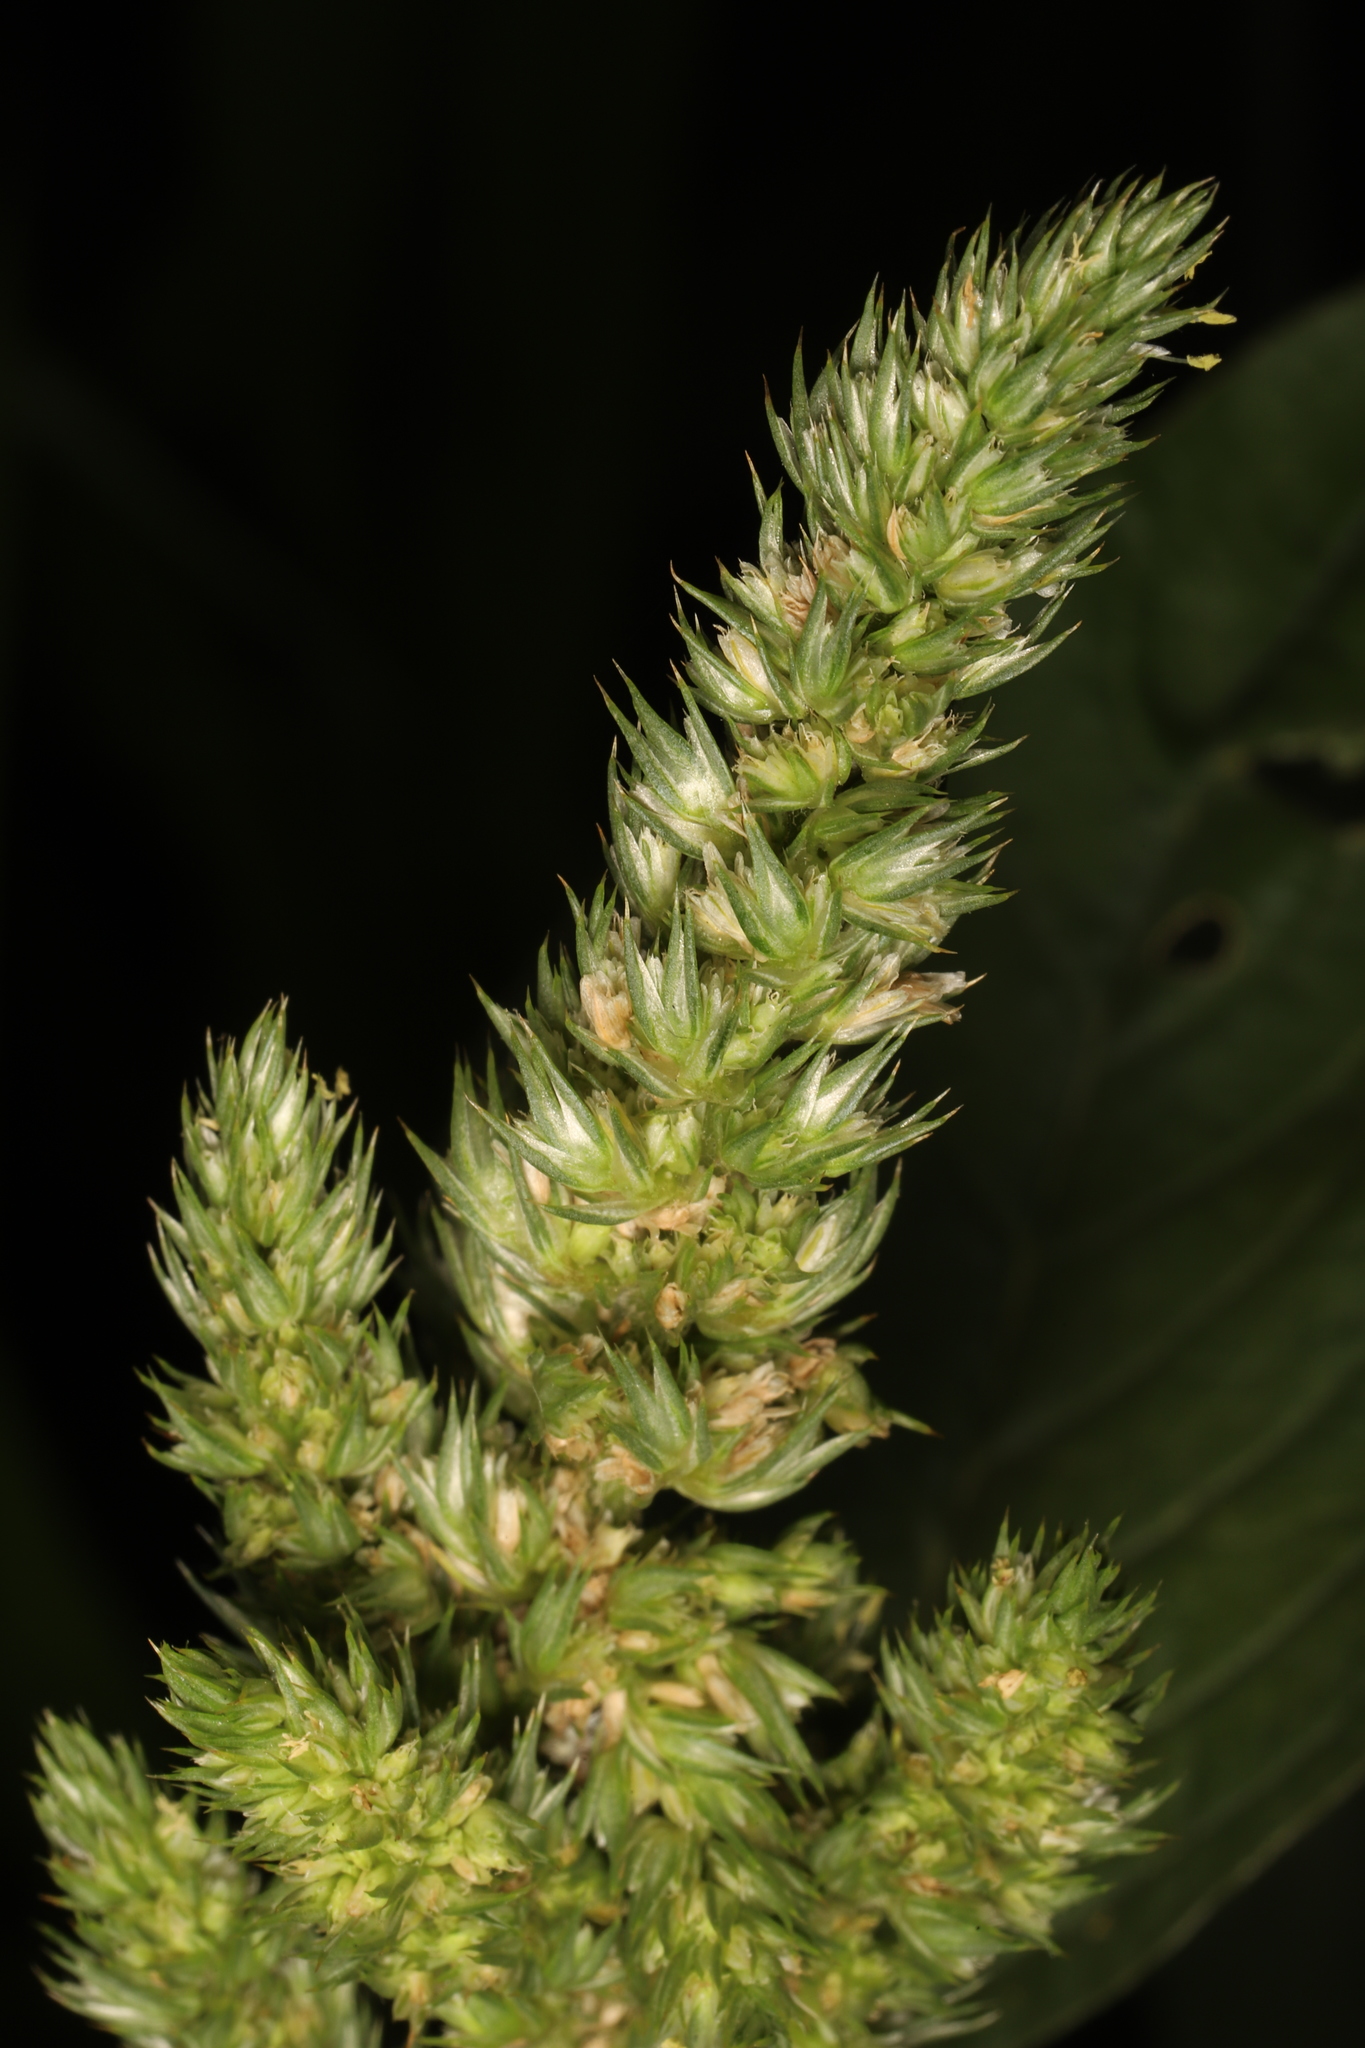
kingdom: Plantae
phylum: Tracheophyta
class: Magnoliopsida
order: Caryophyllales
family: Amaranthaceae
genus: Amaranthus
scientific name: Amaranthus retroflexus
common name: Redroot amaranth
